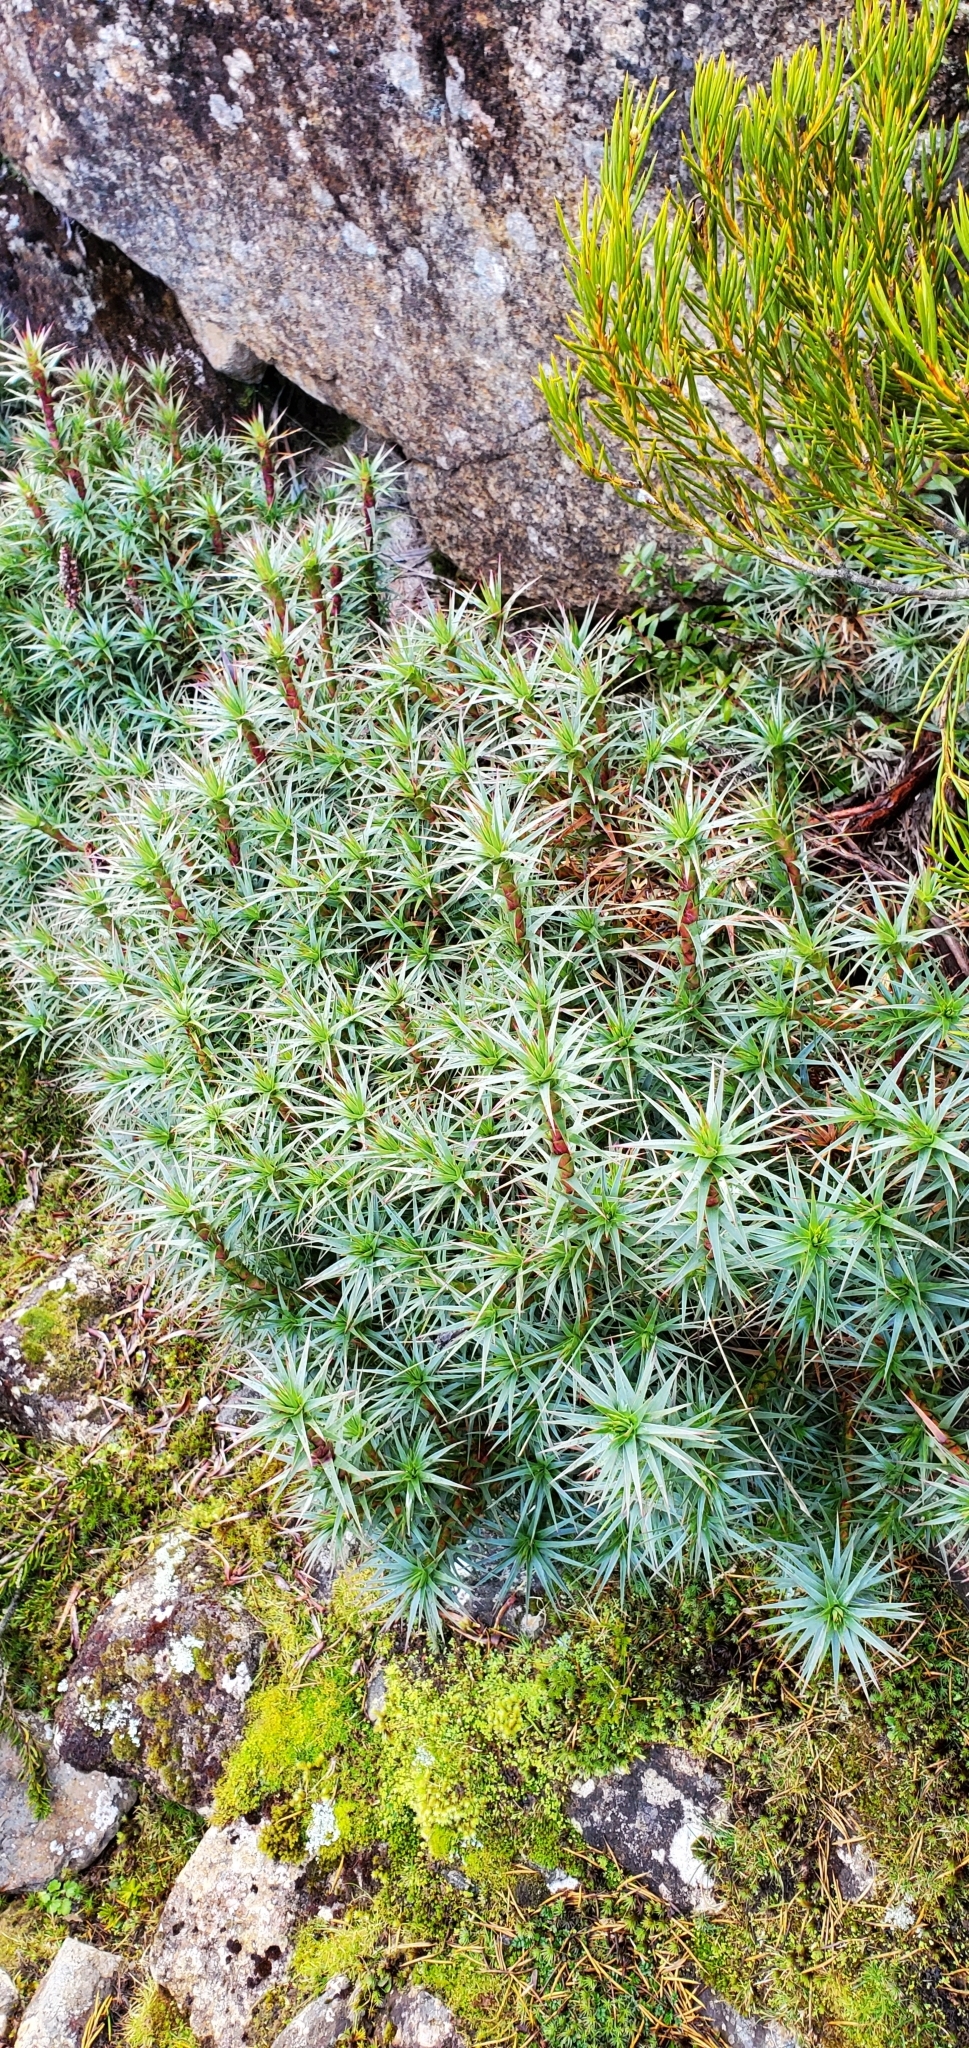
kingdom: Plantae
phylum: Tracheophyta
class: Magnoliopsida
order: Ericales
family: Ericaceae
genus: Dracophyllum
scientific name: Dracophyllum persistentifolium
